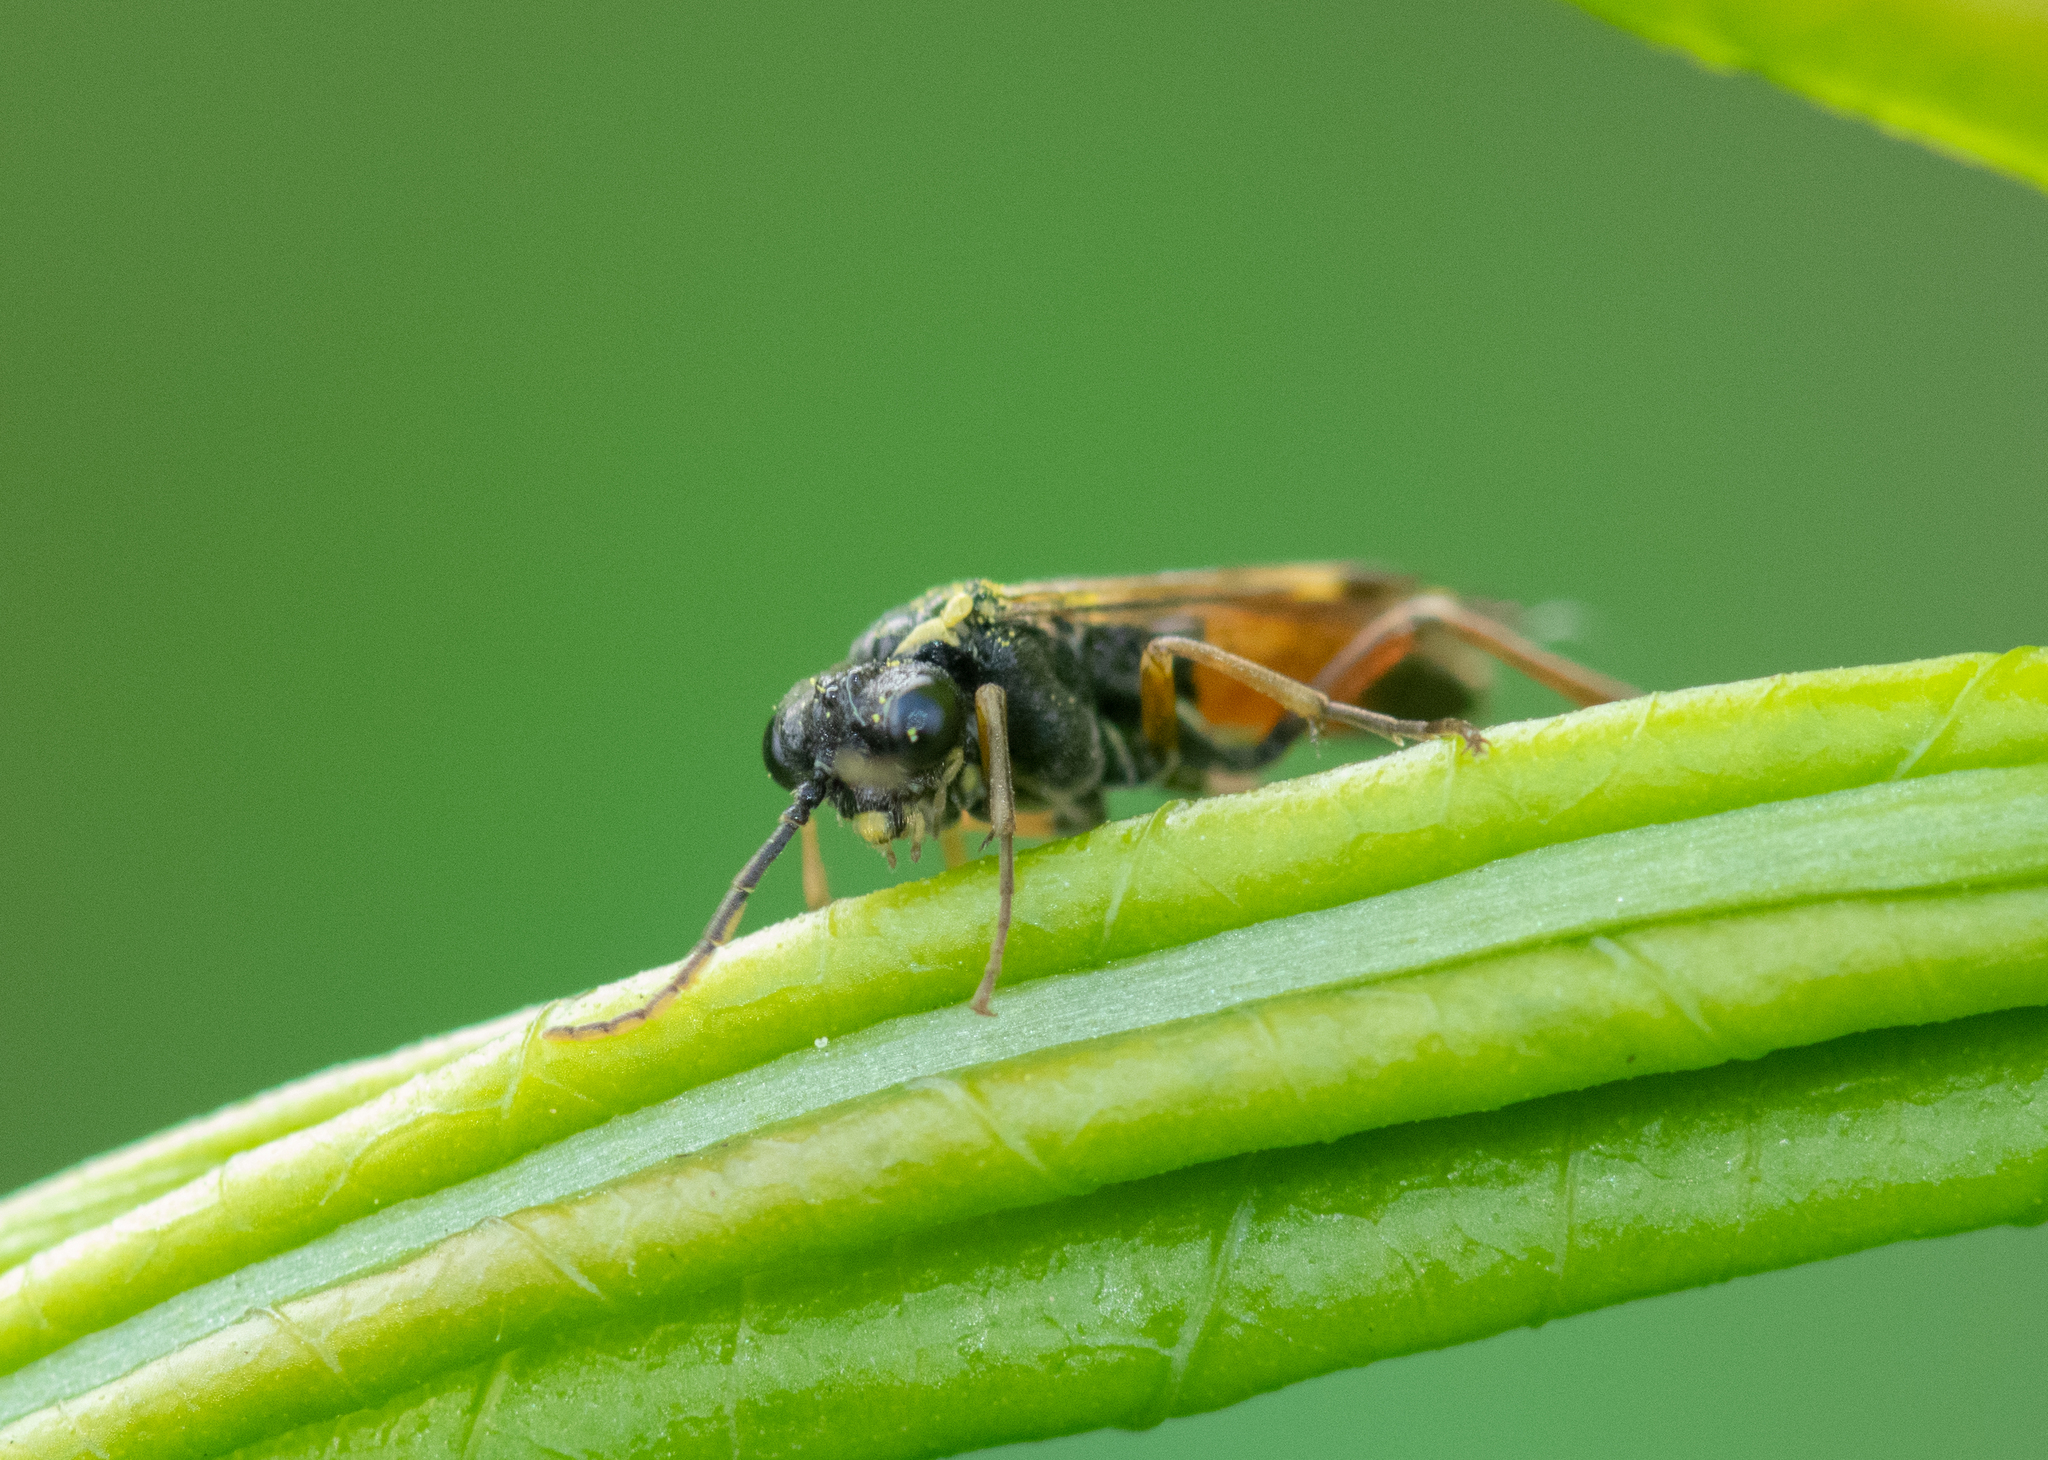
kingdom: Animalia
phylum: Arthropoda
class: Insecta
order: Hymenoptera
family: Tenthredinidae
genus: Aglaostigma
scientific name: Aglaostigma aucupariae
